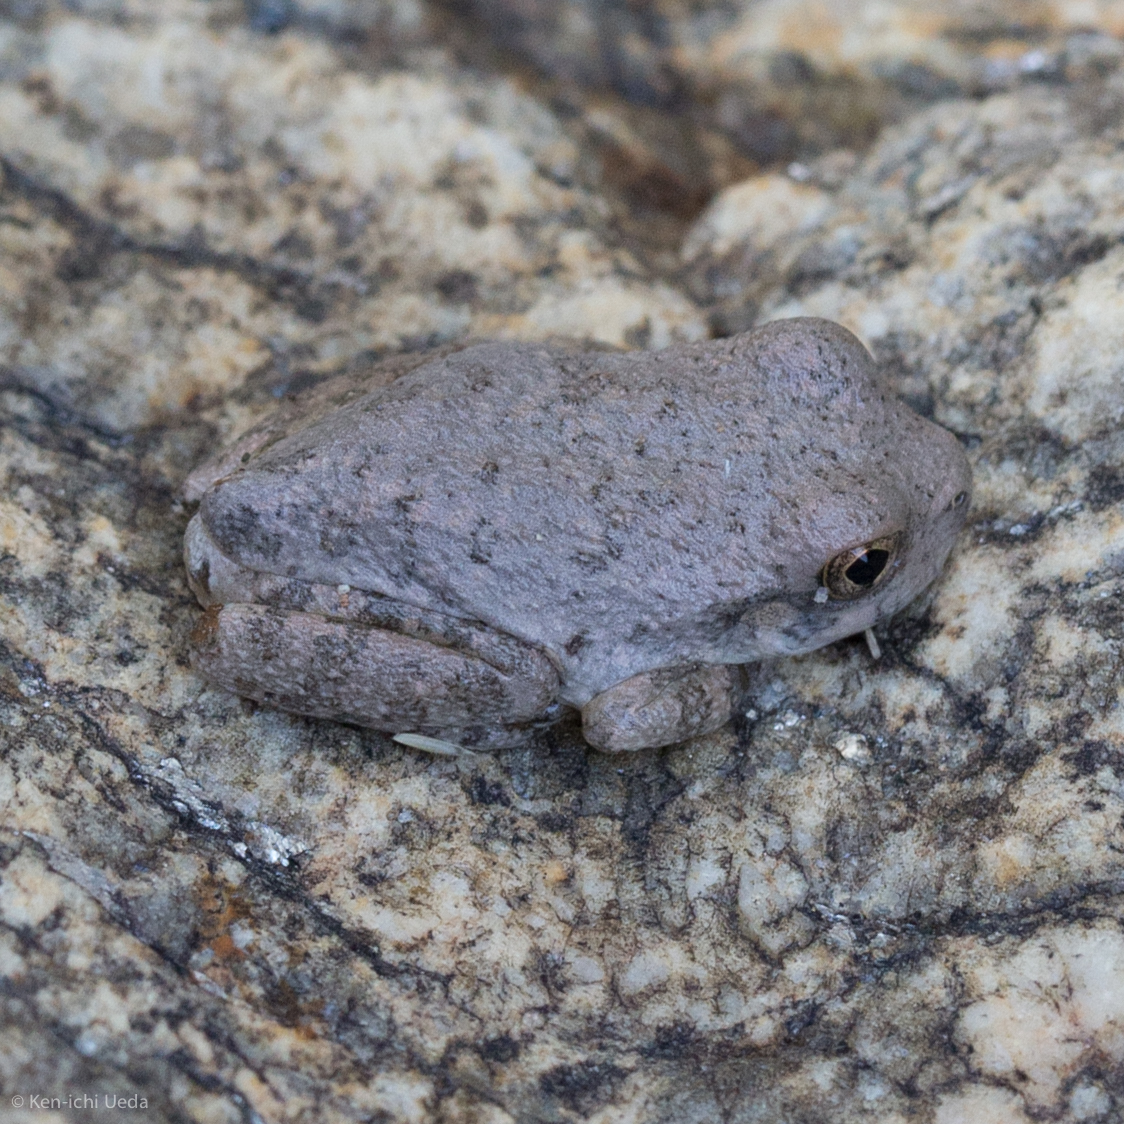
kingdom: Animalia
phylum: Chordata
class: Amphibia
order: Anura
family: Hylidae
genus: Dryophytes
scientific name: Dryophytes arenicolor
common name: Canyon treefrog
